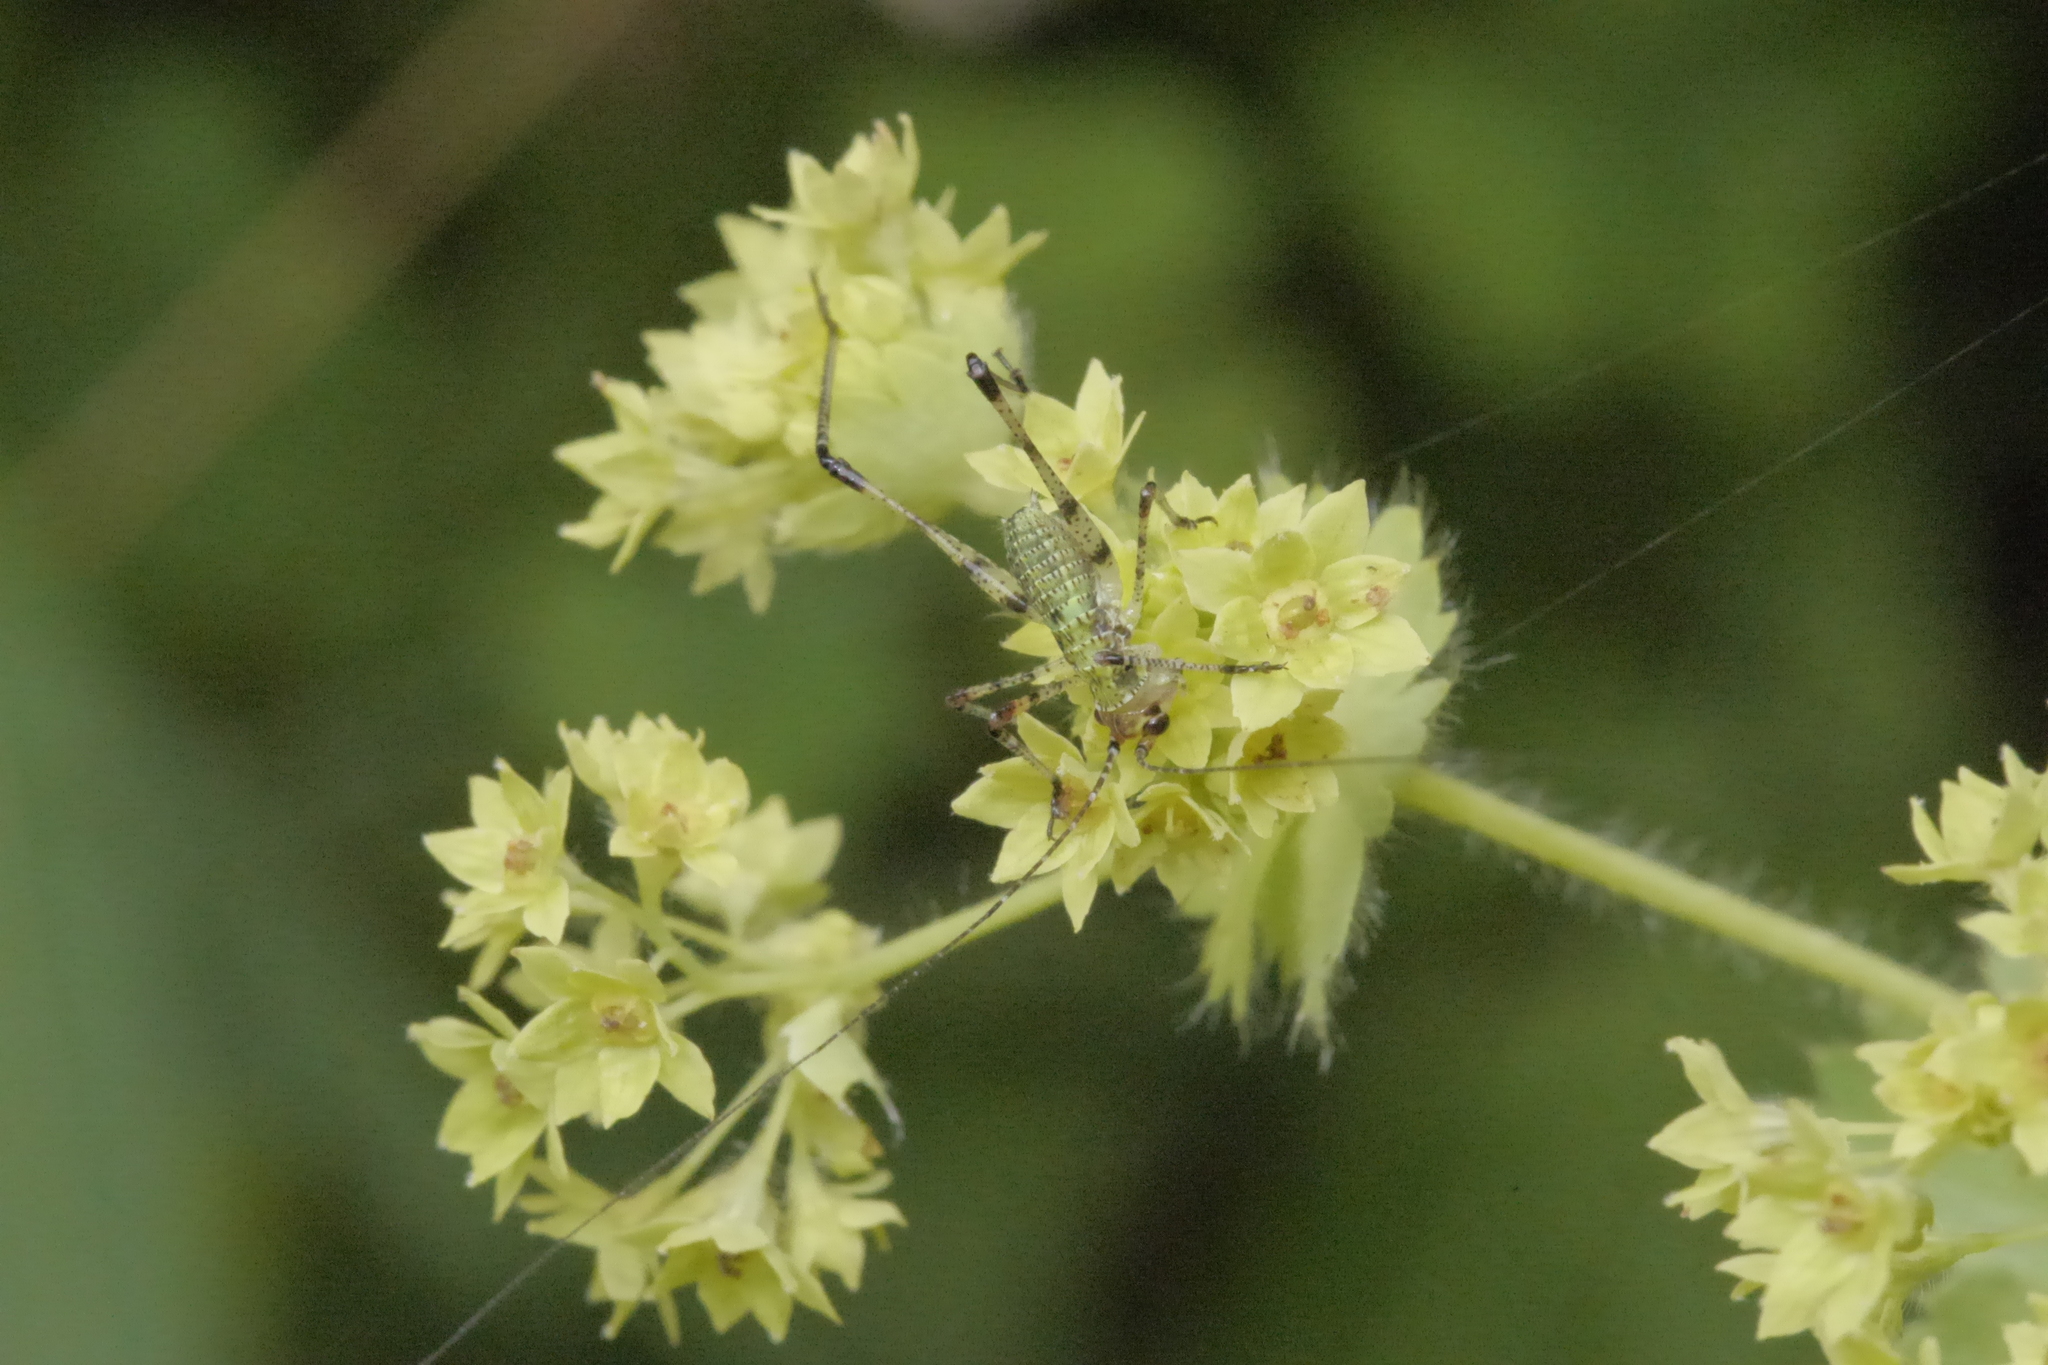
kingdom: Animalia
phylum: Arthropoda
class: Insecta
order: Orthoptera
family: Tettigoniidae
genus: Phaneroptera
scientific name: Phaneroptera nana
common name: Southern sickle bush-cricket
